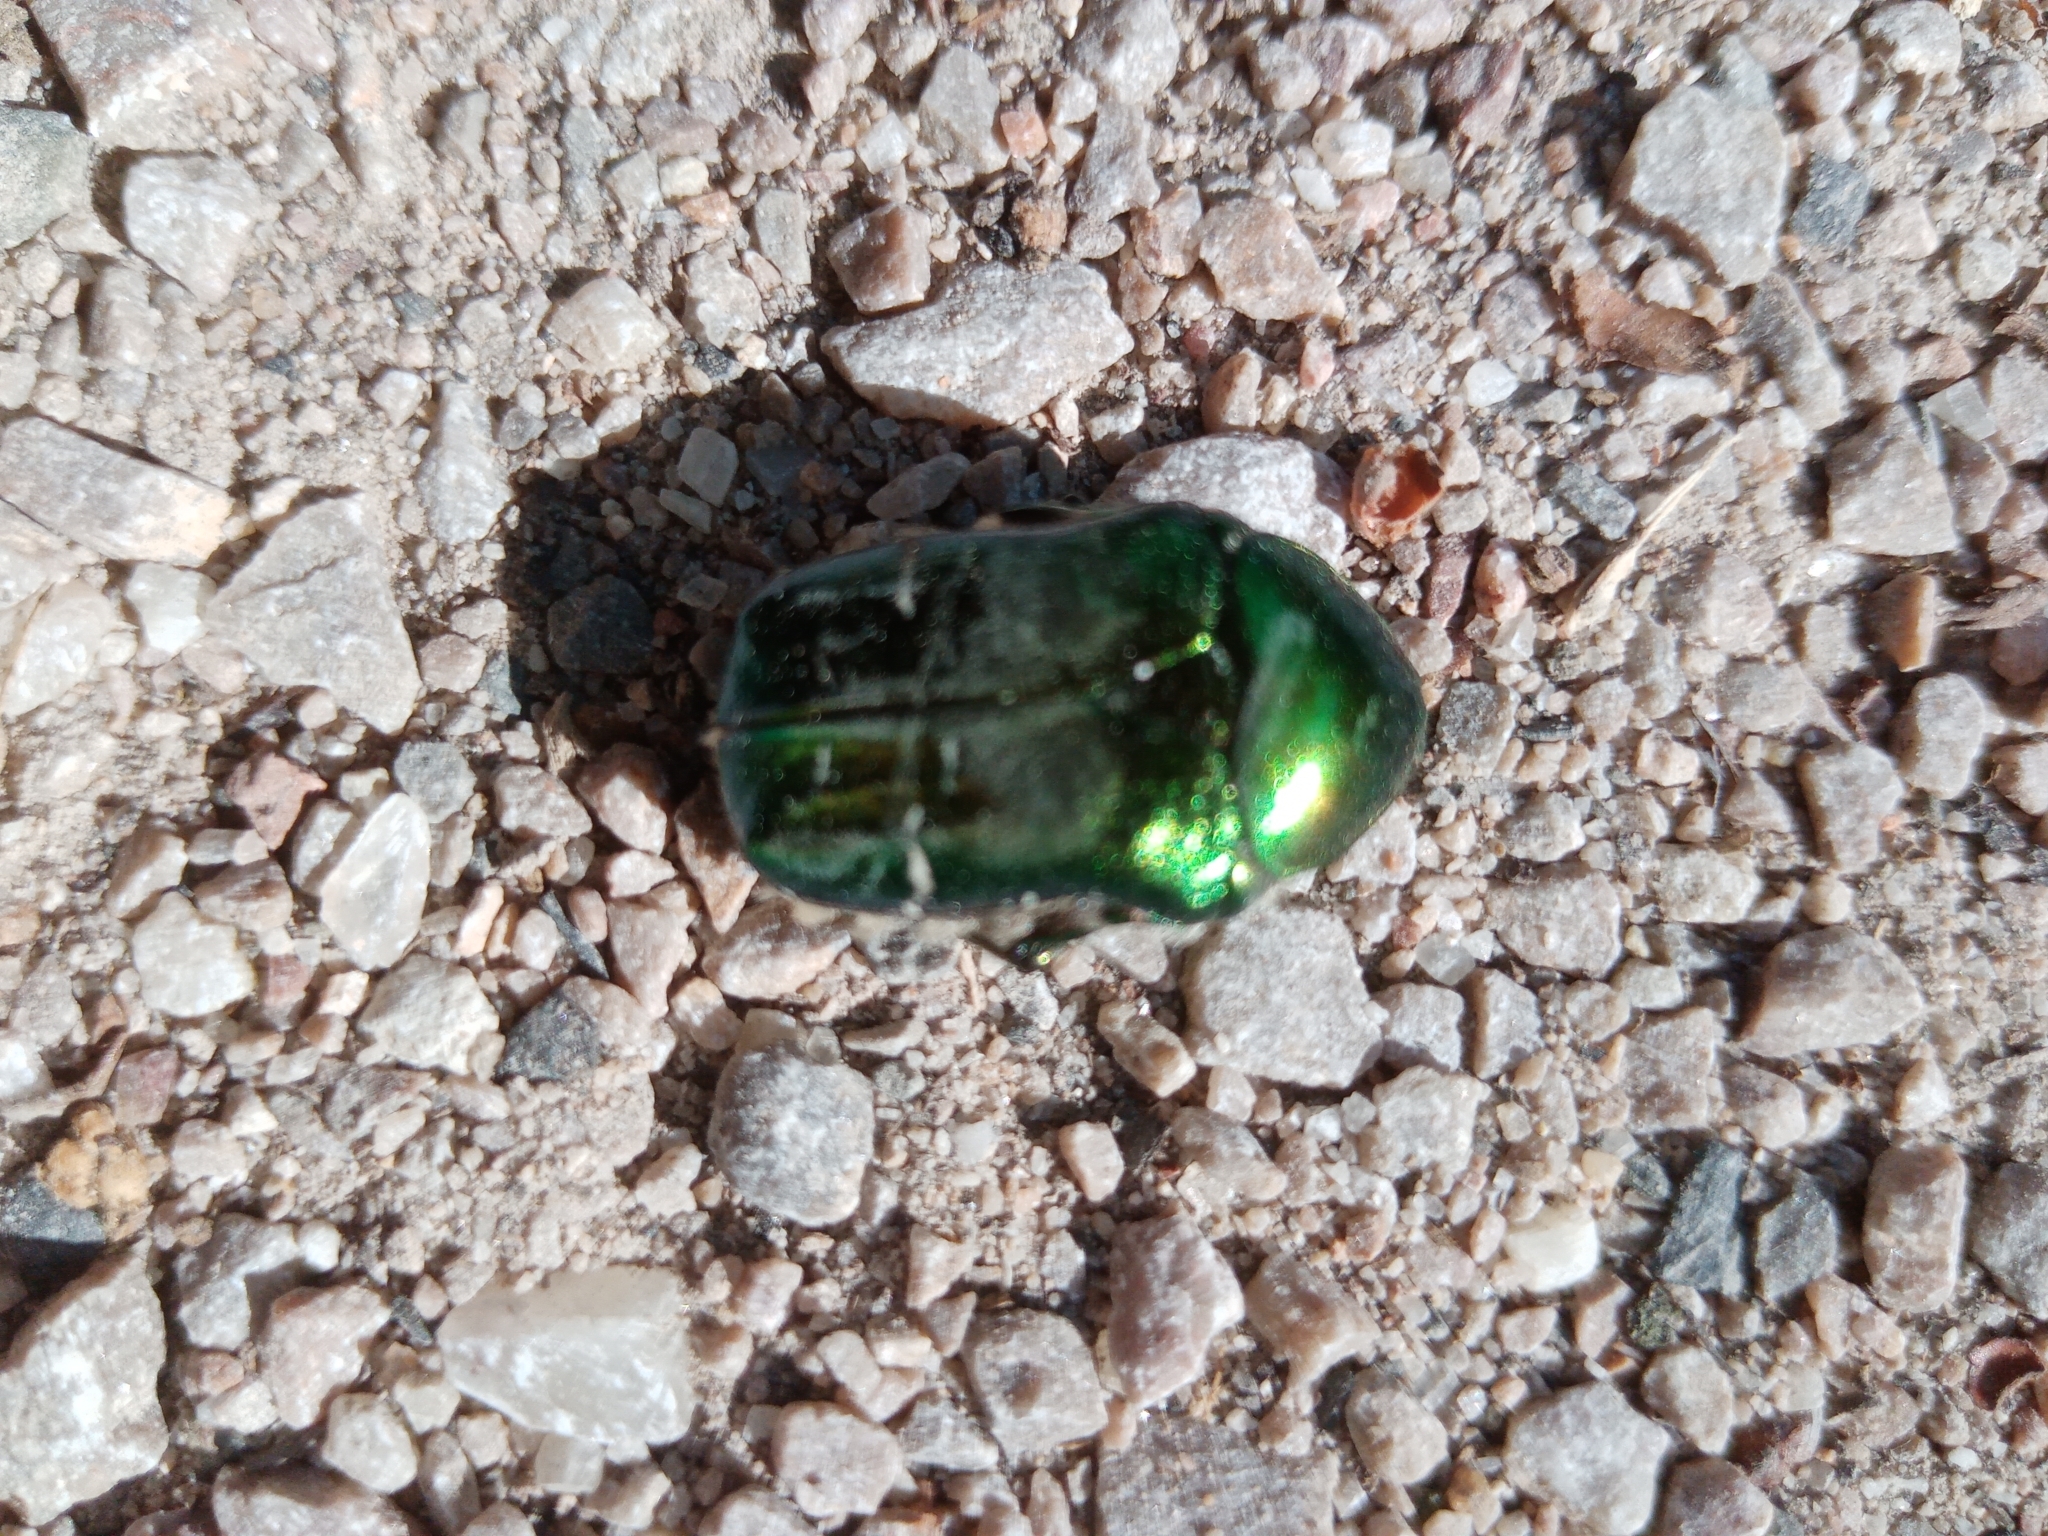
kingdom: Animalia
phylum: Arthropoda
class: Insecta
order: Coleoptera
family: Scarabaeidae
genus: Cetonia
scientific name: Cetonia aurata
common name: Rose chafer
